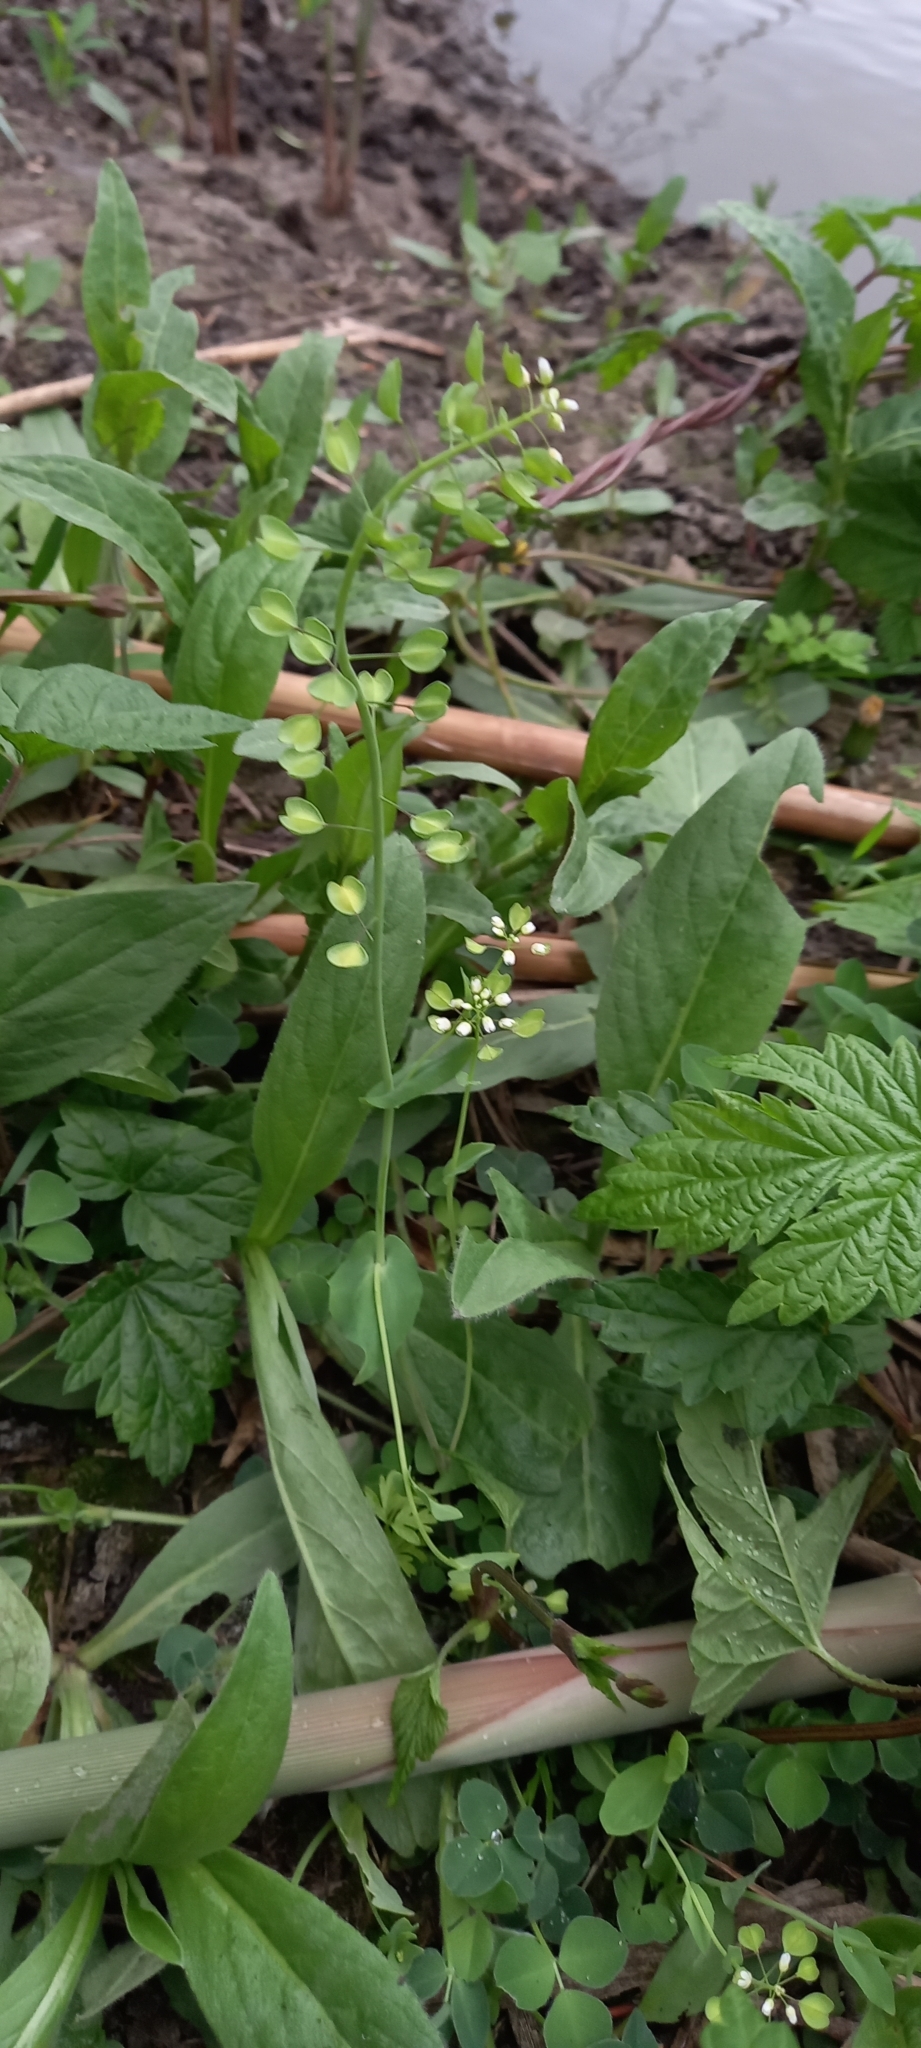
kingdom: Plantae
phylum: Tracheophyta
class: Magnoliopsida
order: Brassicales
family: Brassicaceae
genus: Noccaea
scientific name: Noccaea perfoliata
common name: Perfoliate pennycress
